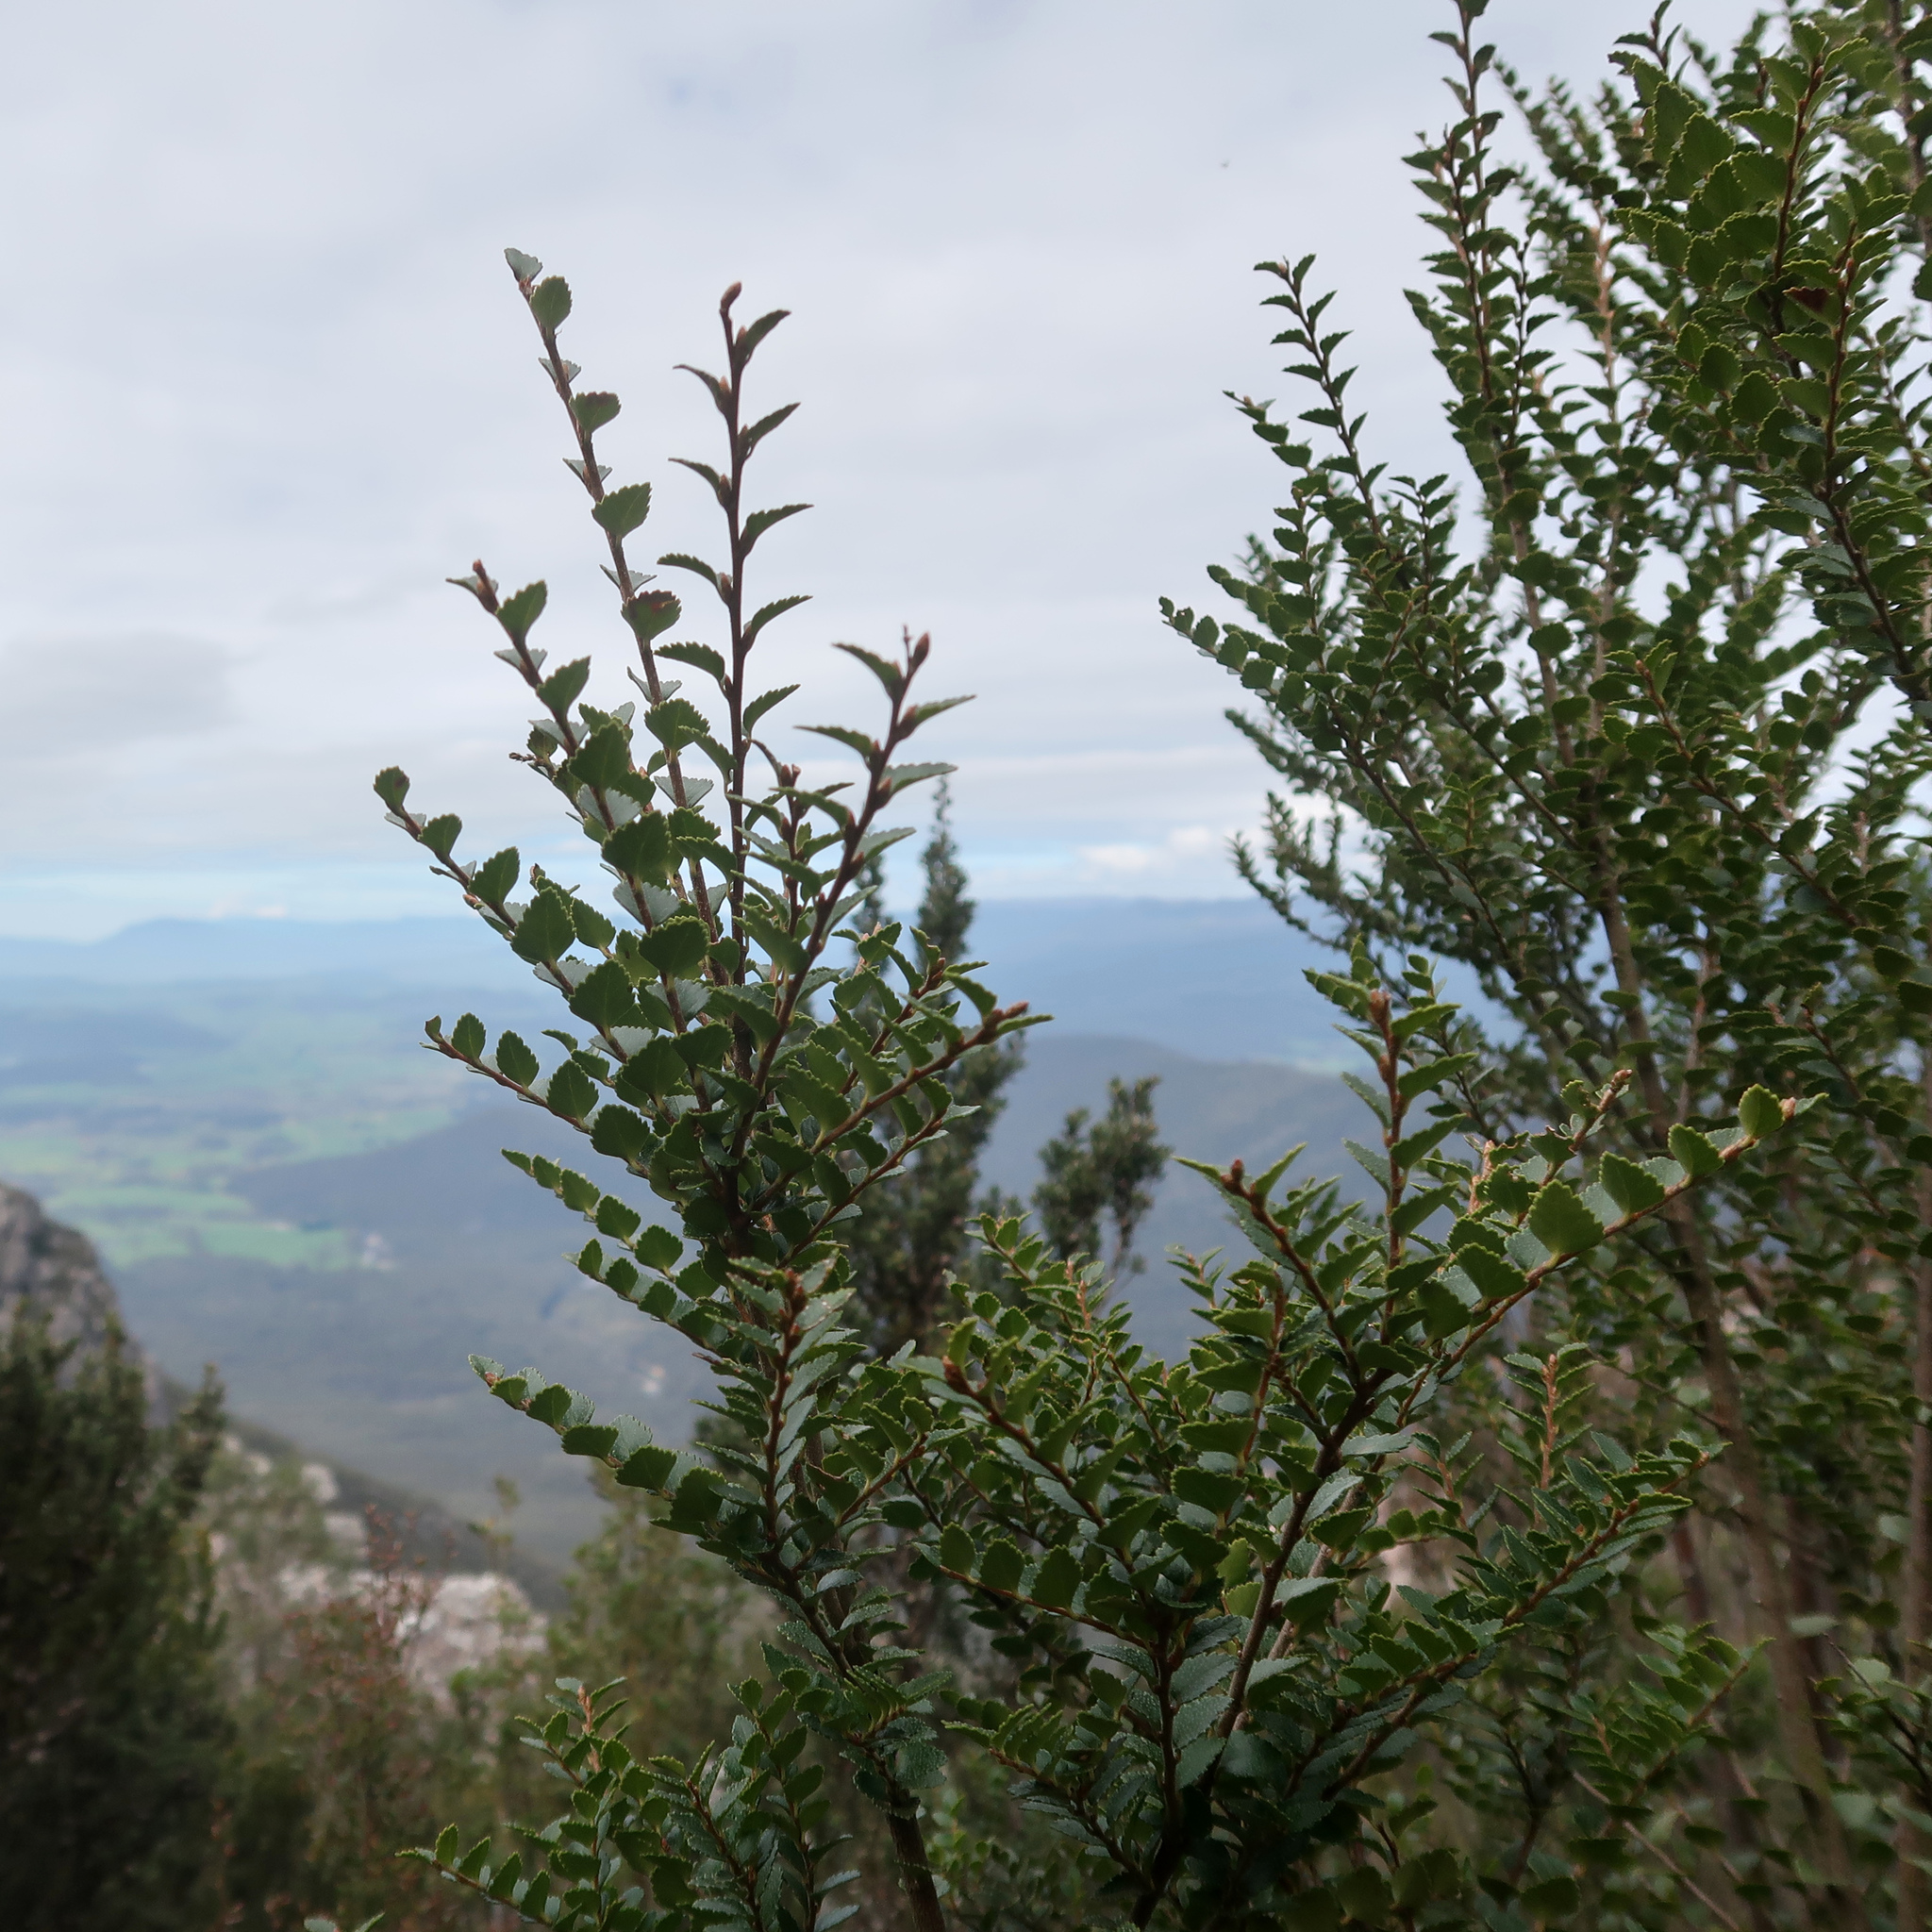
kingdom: Plantae
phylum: Tracheophyta
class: Magnoliopsida
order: Fagales
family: Nothofagaceae
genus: Nothofagus
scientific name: Nothofagus cunninghamii
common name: Myrtle beech
